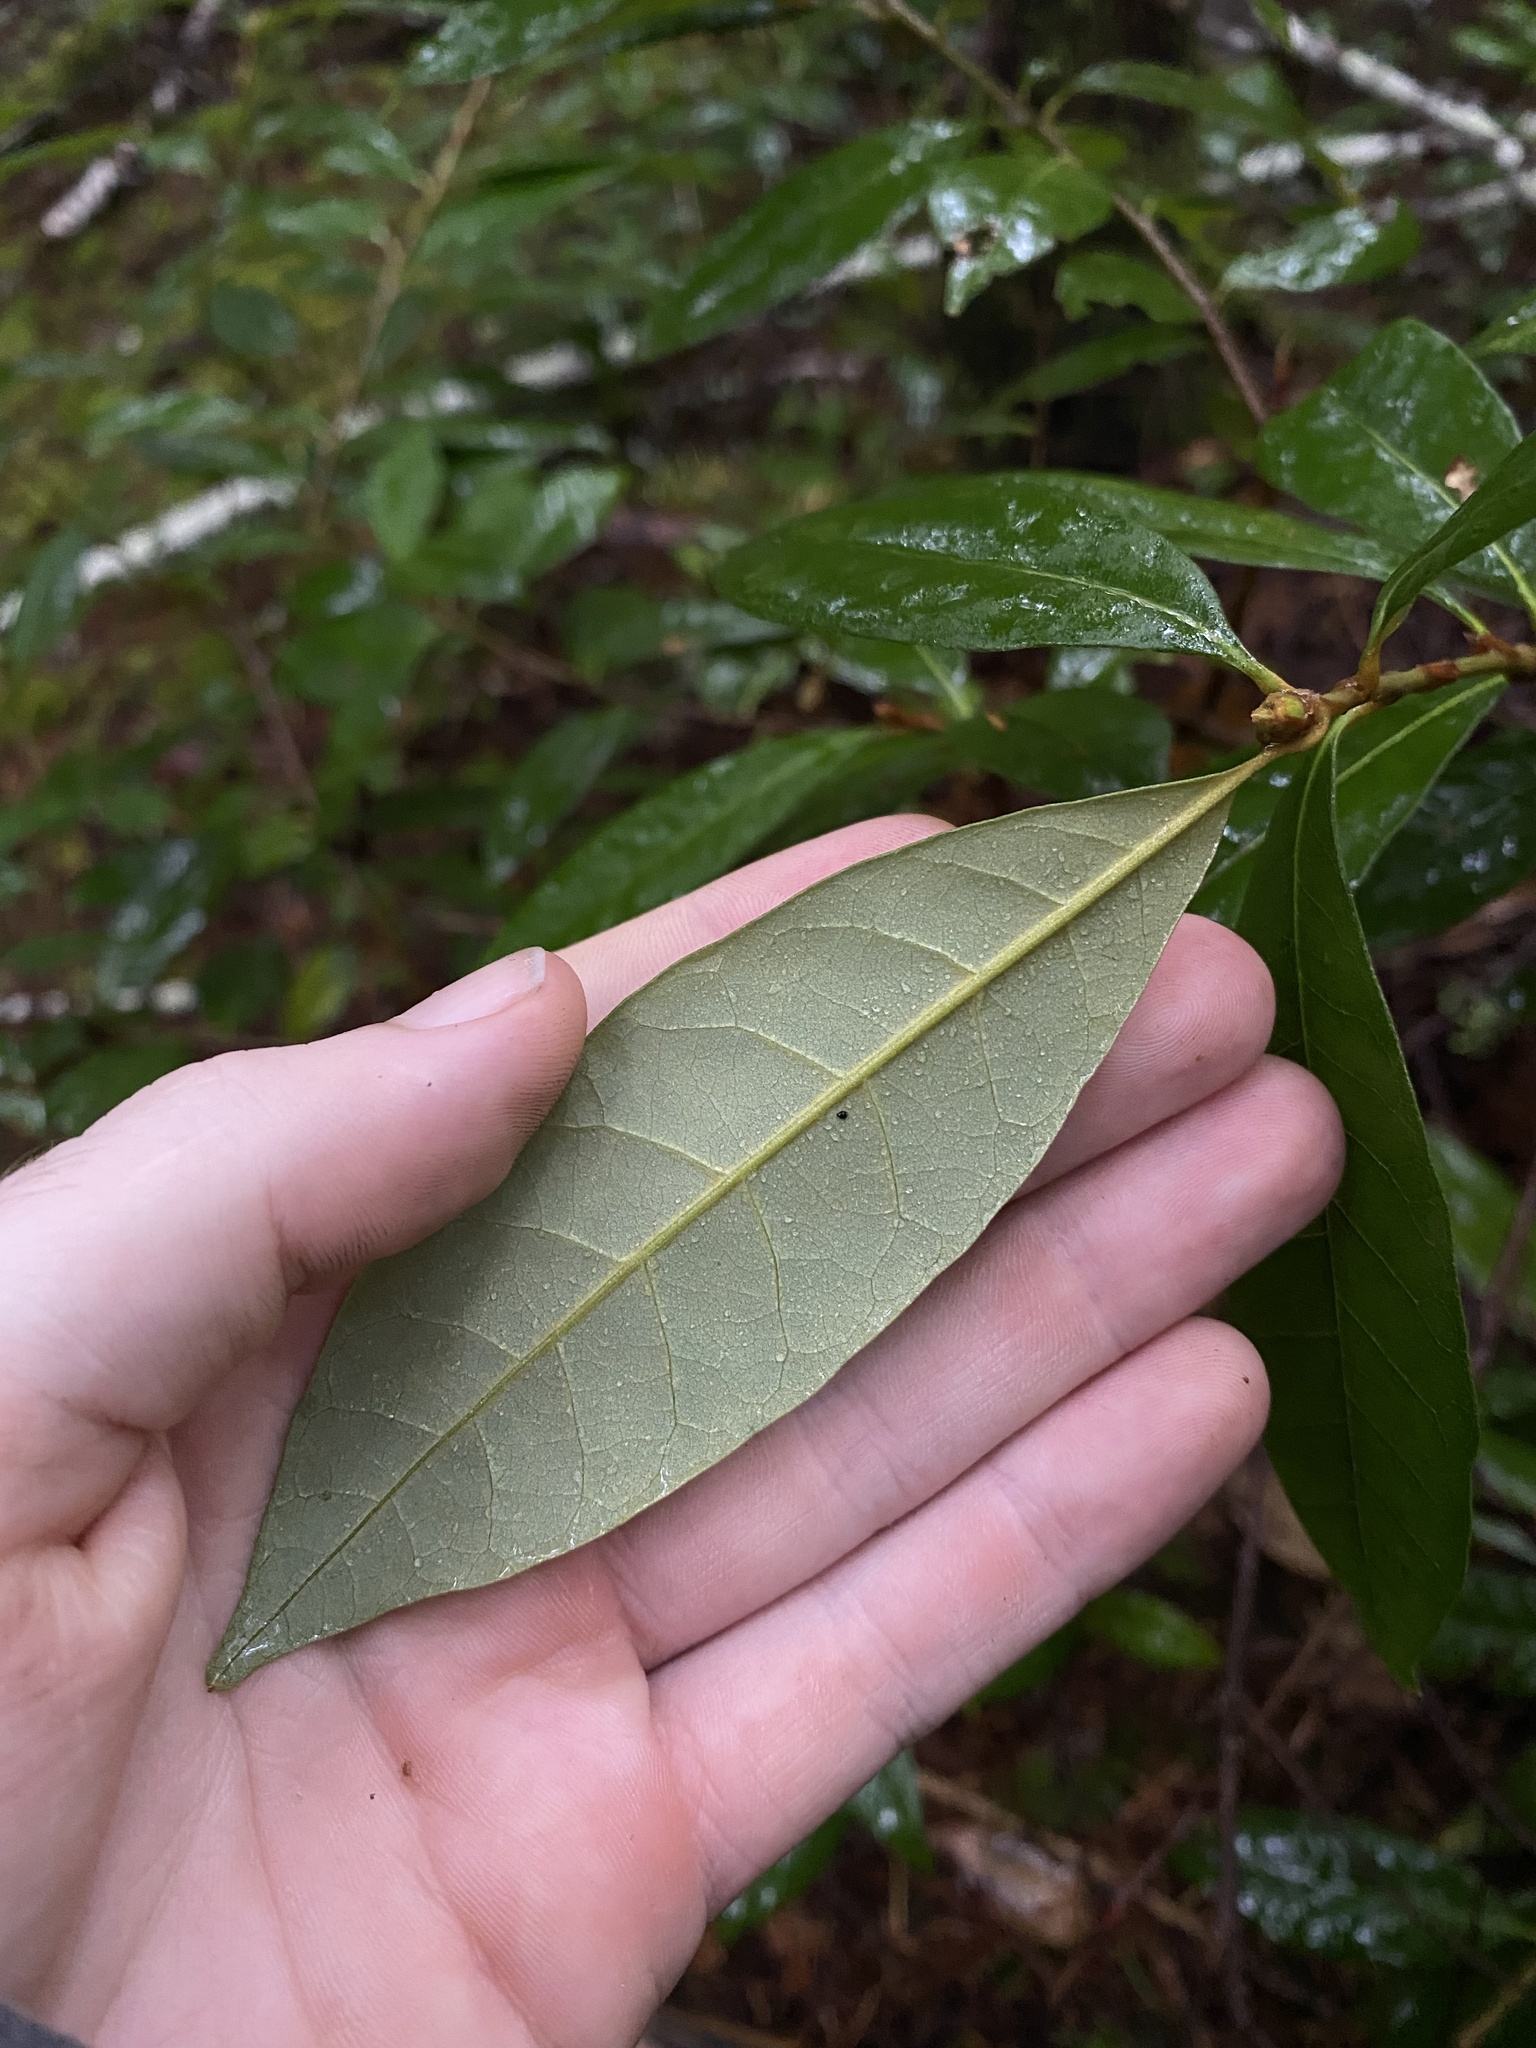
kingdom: Plantae
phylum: Tracheophyta
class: Magnoliopsida
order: Fagales
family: Fagaceae
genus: Chrysolepis
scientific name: Chrysolepis chrysophylla
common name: Giant chinquapin
